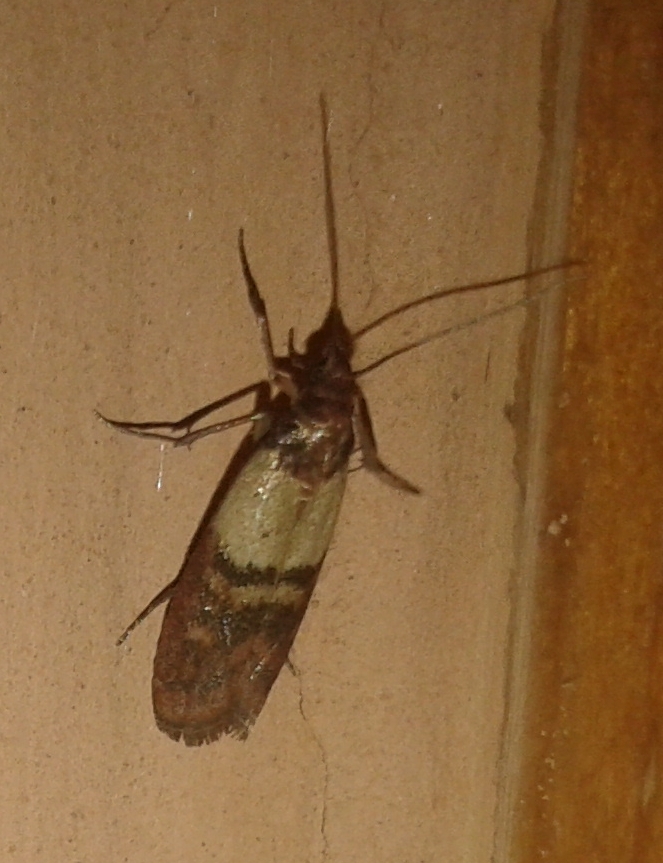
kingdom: Animalia
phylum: Arthropoda
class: Insecta
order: Lepidoptera
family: Pyralidae
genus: Plodia
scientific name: Plodia interpunctella
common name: Indian meal moth
